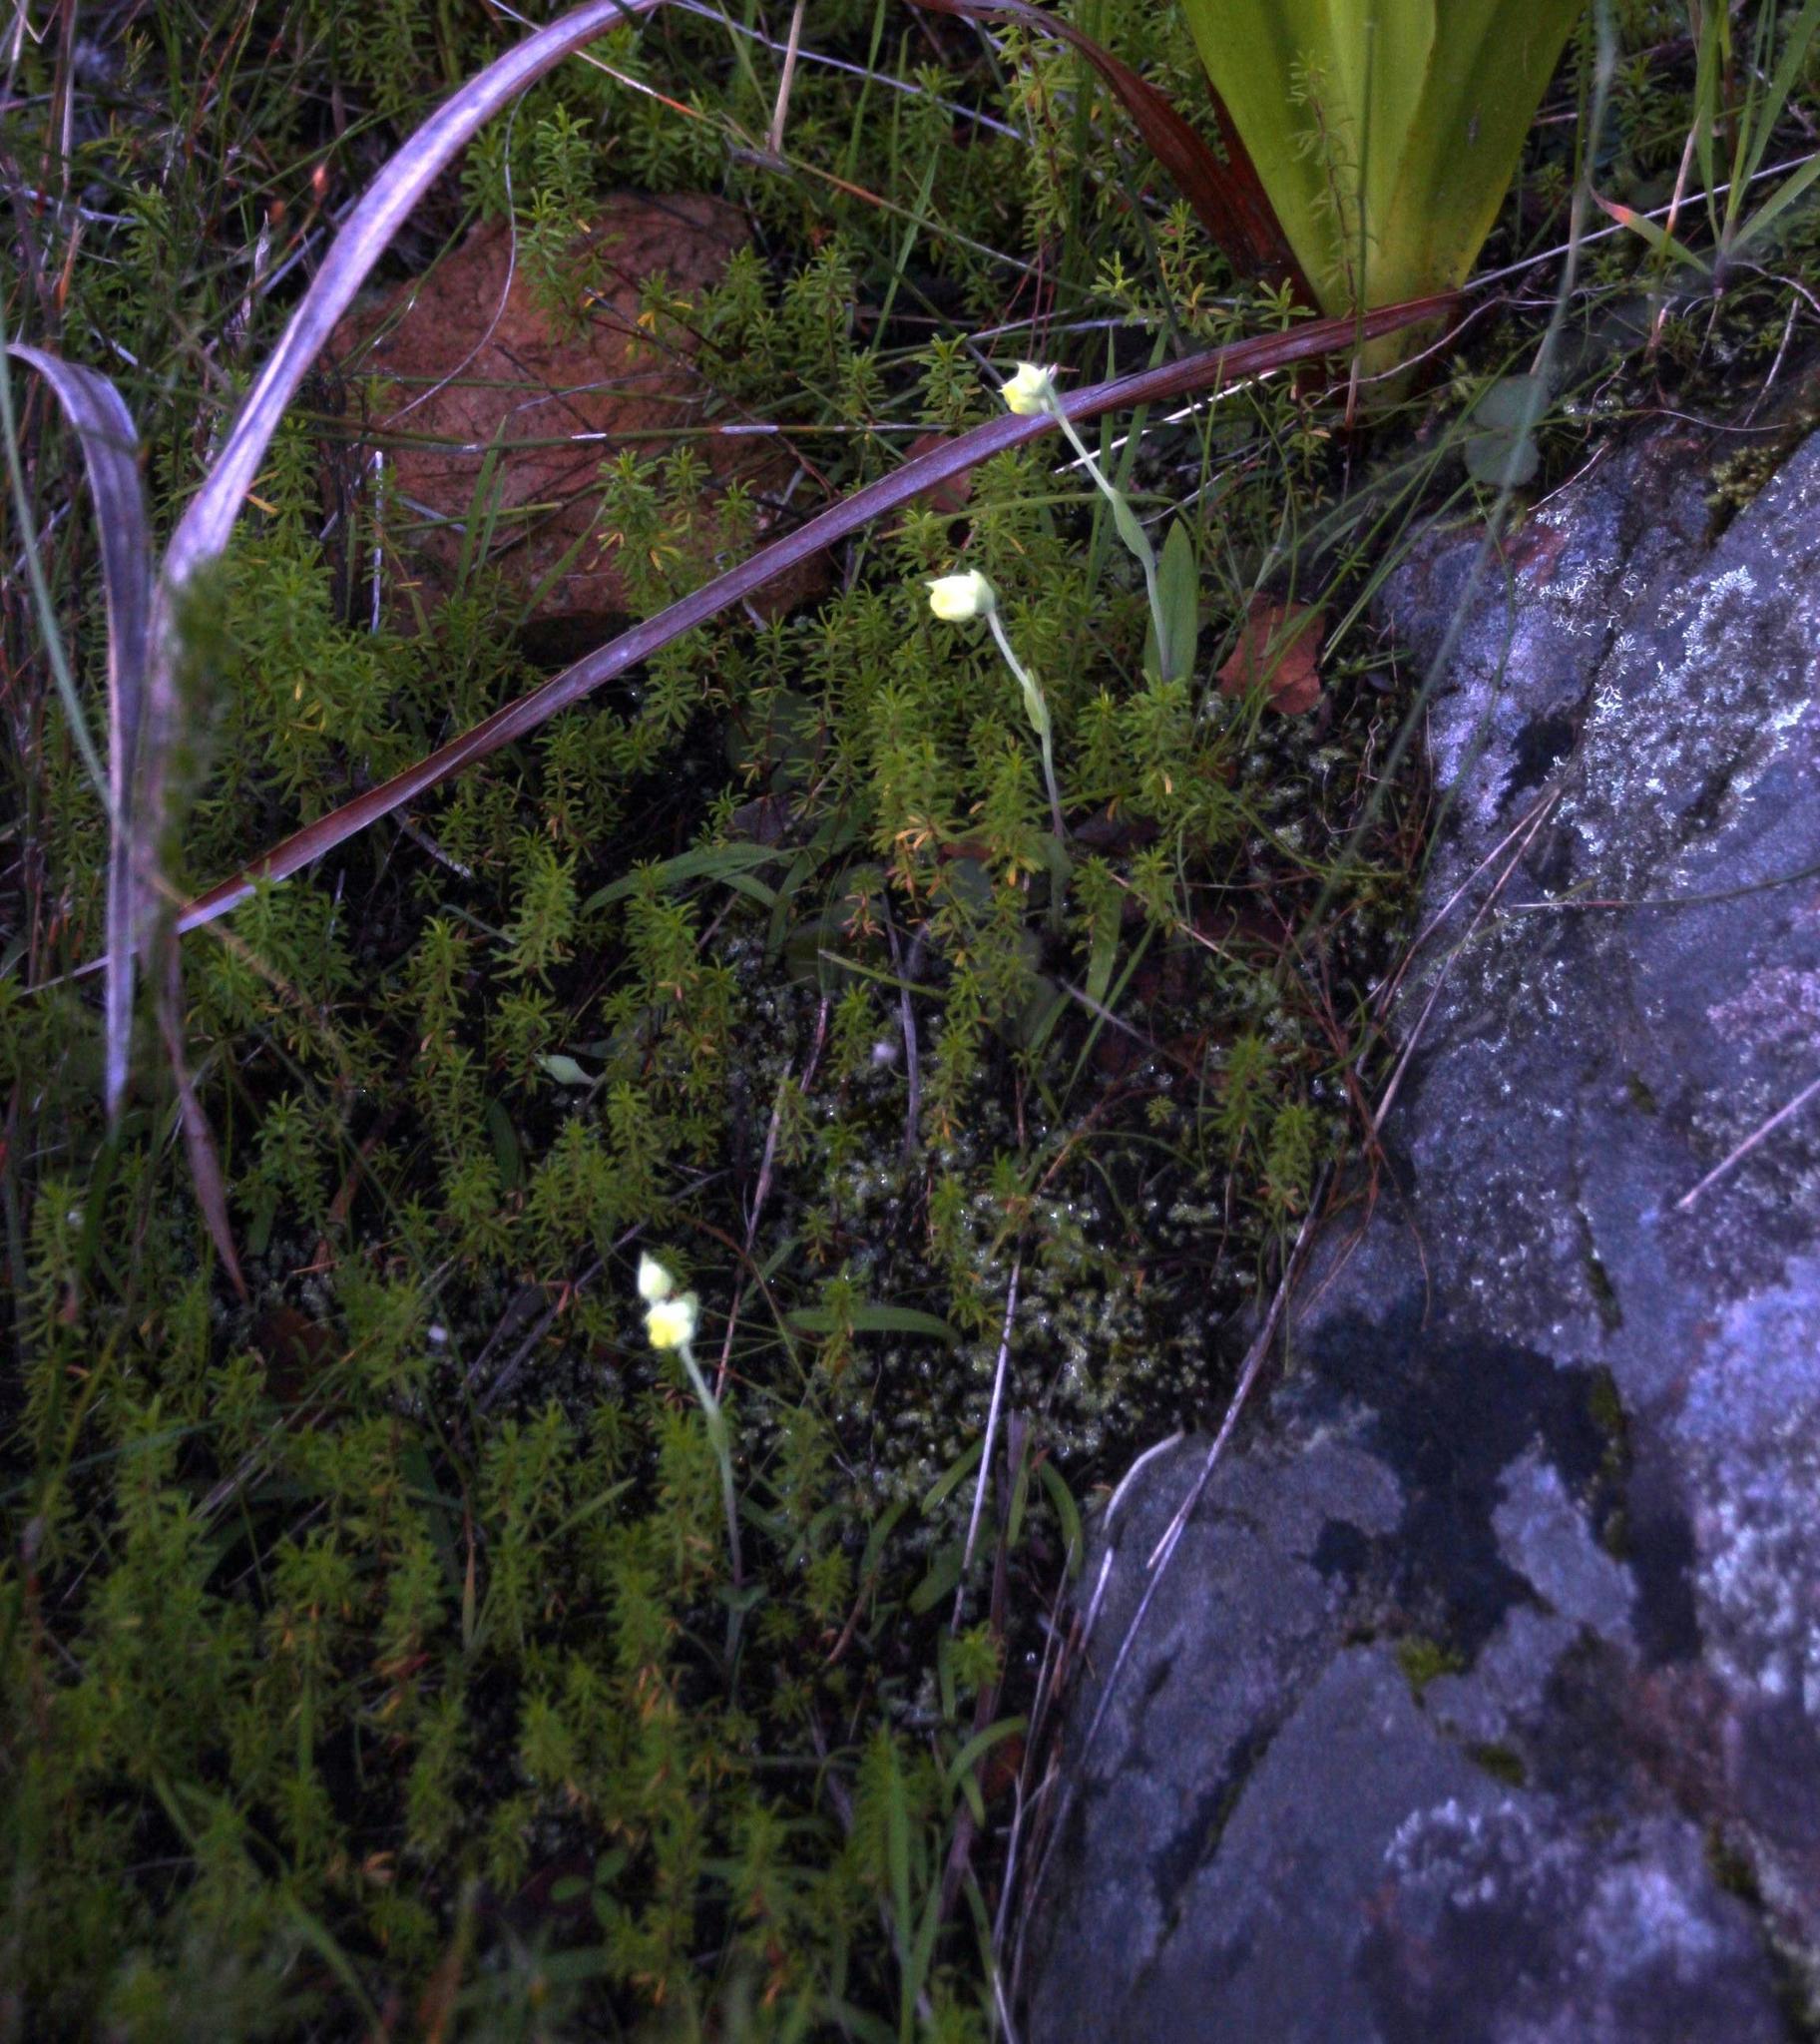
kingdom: Plantae
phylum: Tracheophyta
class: Liliopsida
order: Asparagales
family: Orchidaceae
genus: Pterygodium
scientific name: Pterygodium platypetalum
